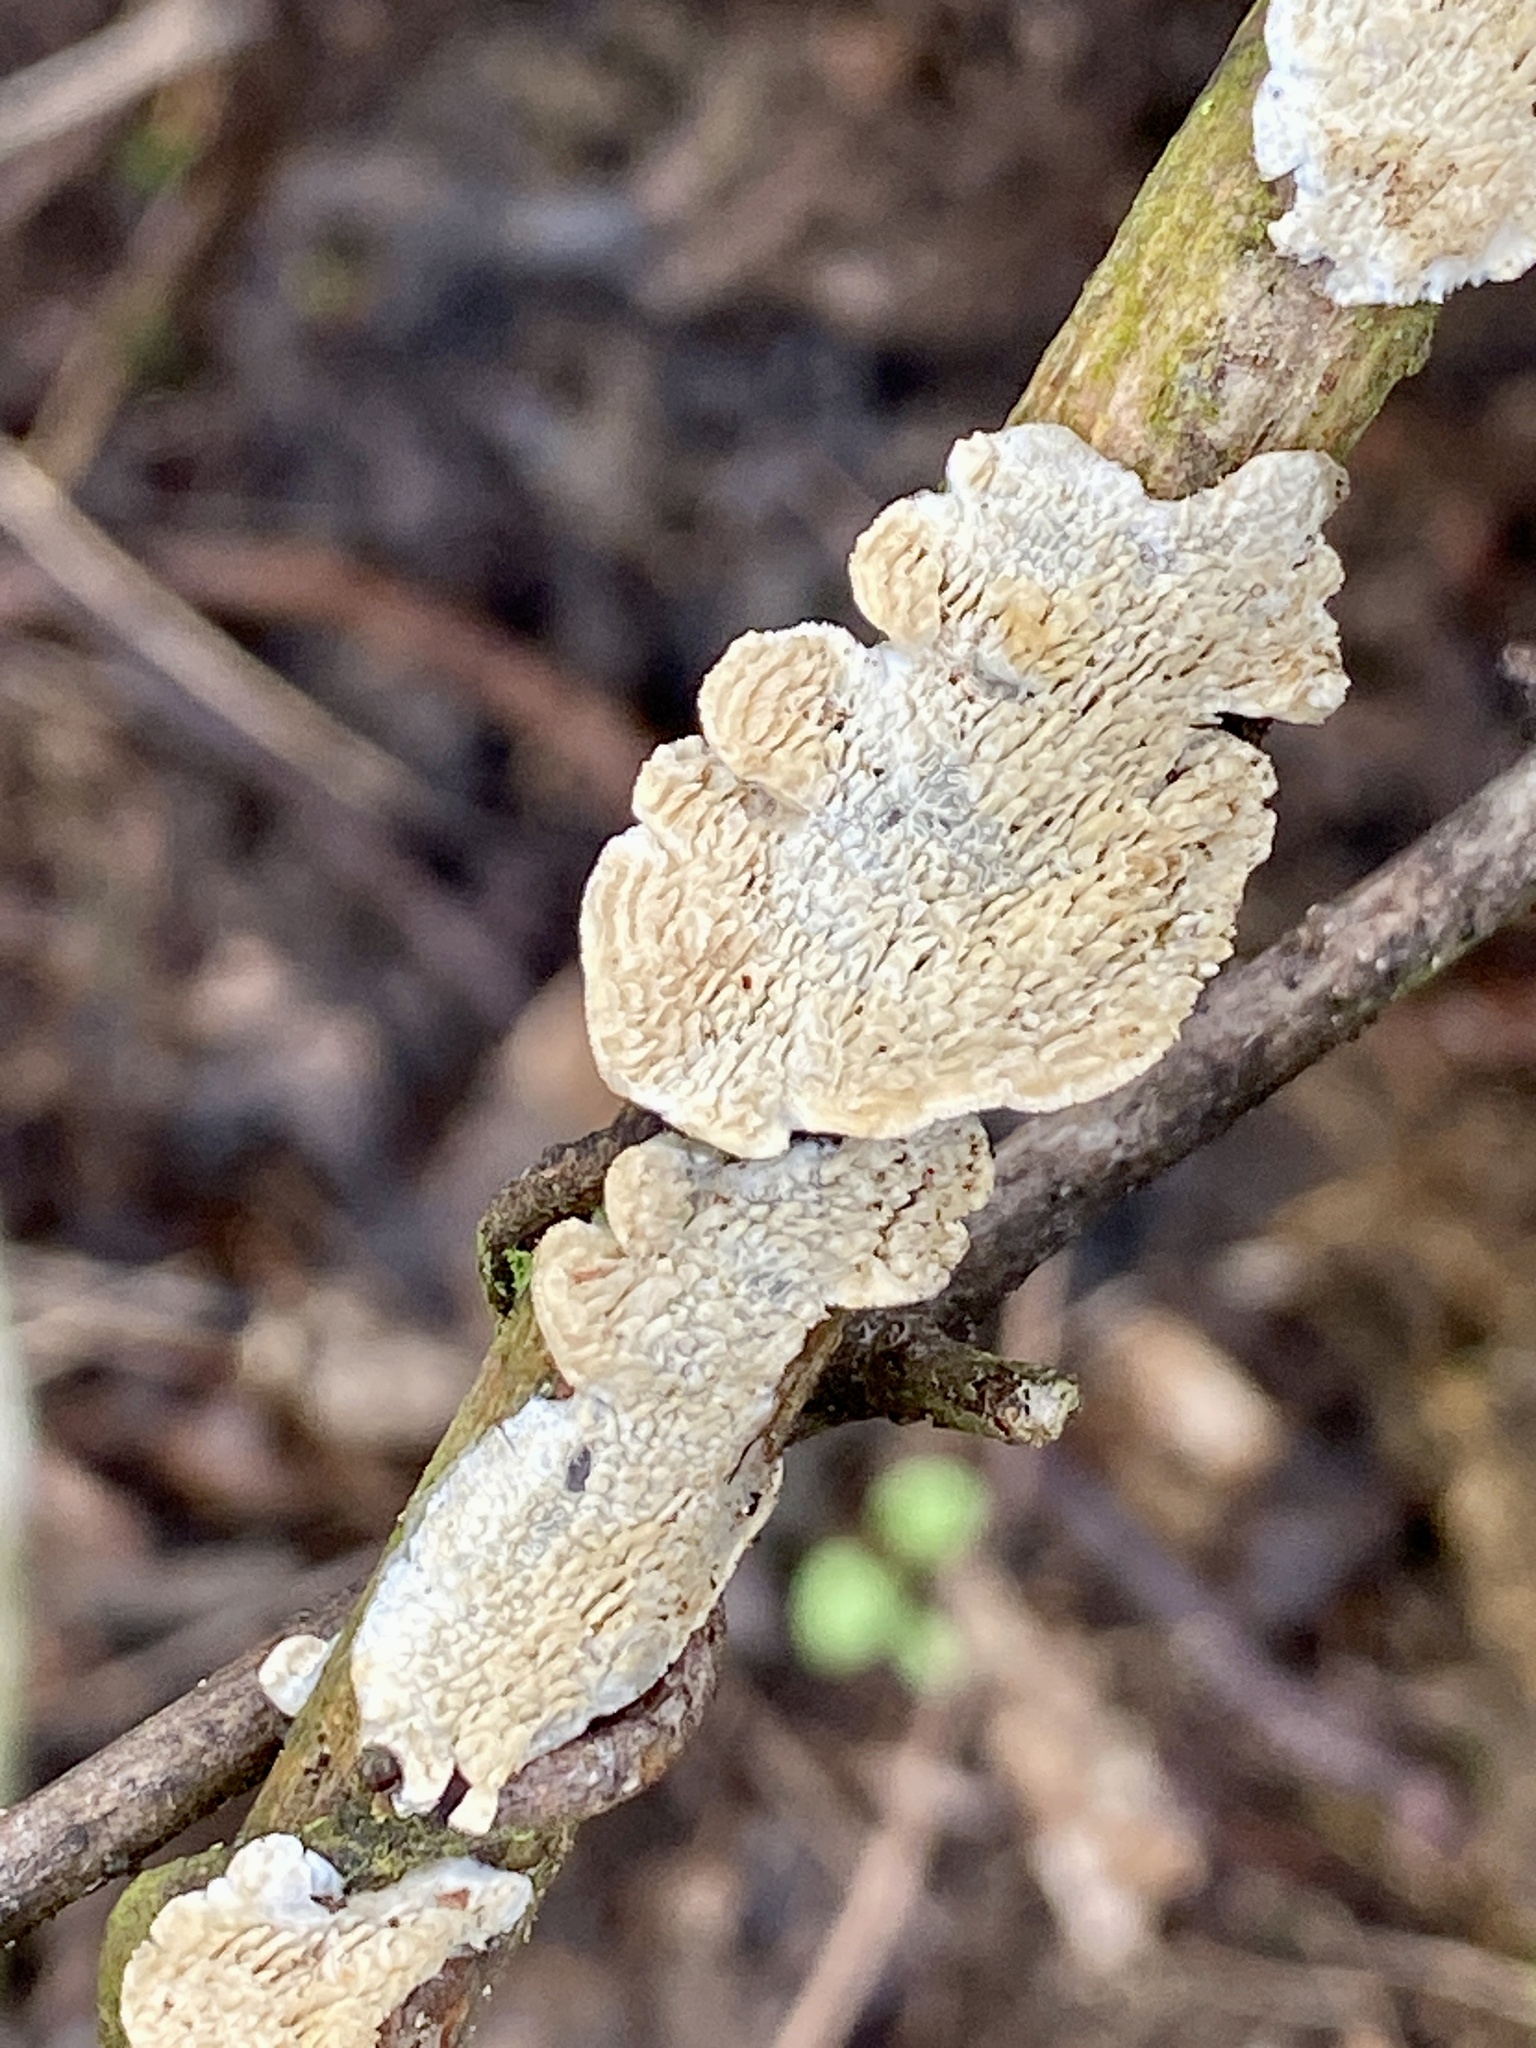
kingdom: Fungi
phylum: Basidiomycota
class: Agaricomycetes
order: Polyporales
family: Irpicaceae
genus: Irpex
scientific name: Irpex lacteus
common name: Milk-white toothed polypore
